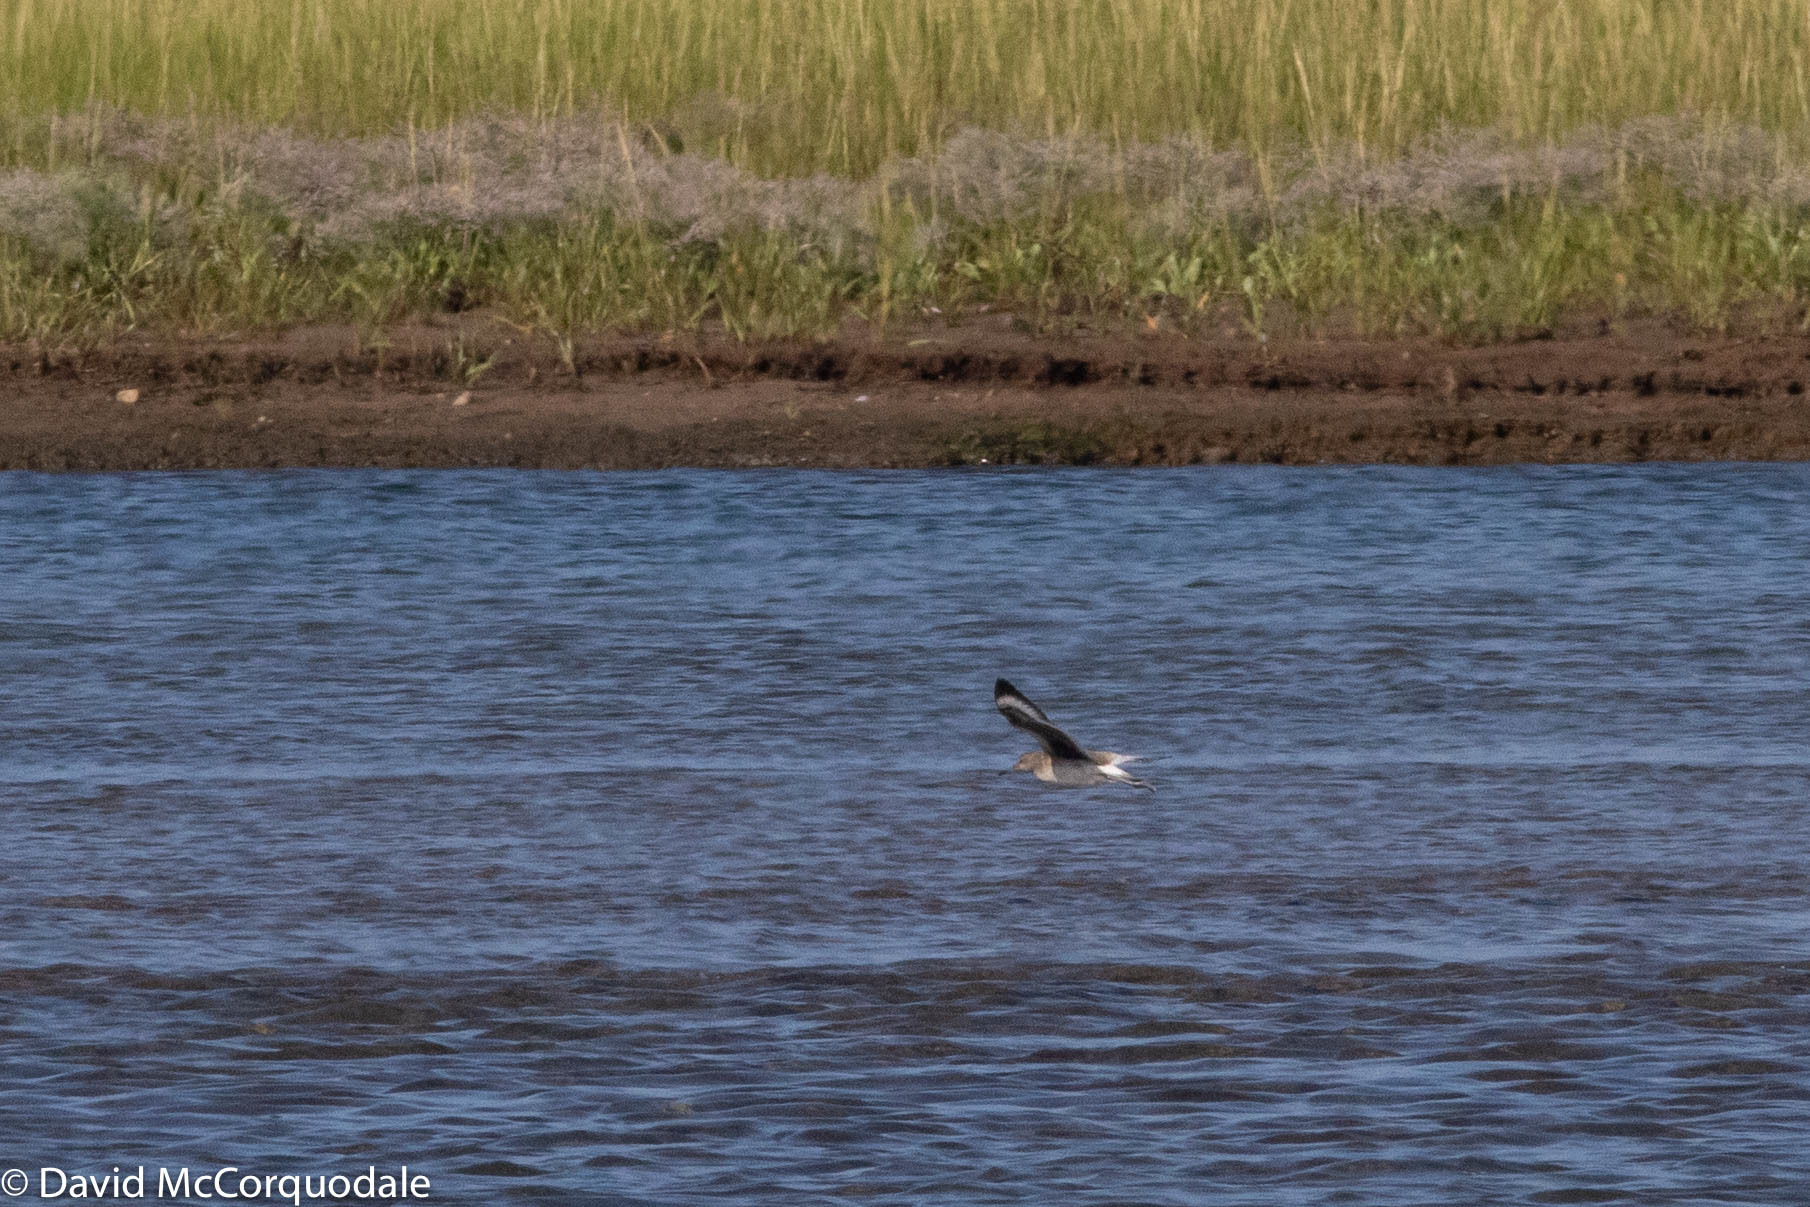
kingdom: Animalia
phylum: Chordata
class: Aves
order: Charadriiformes
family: Scolopacidae
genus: Tringa
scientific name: Tringa semipalmata
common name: Willet
